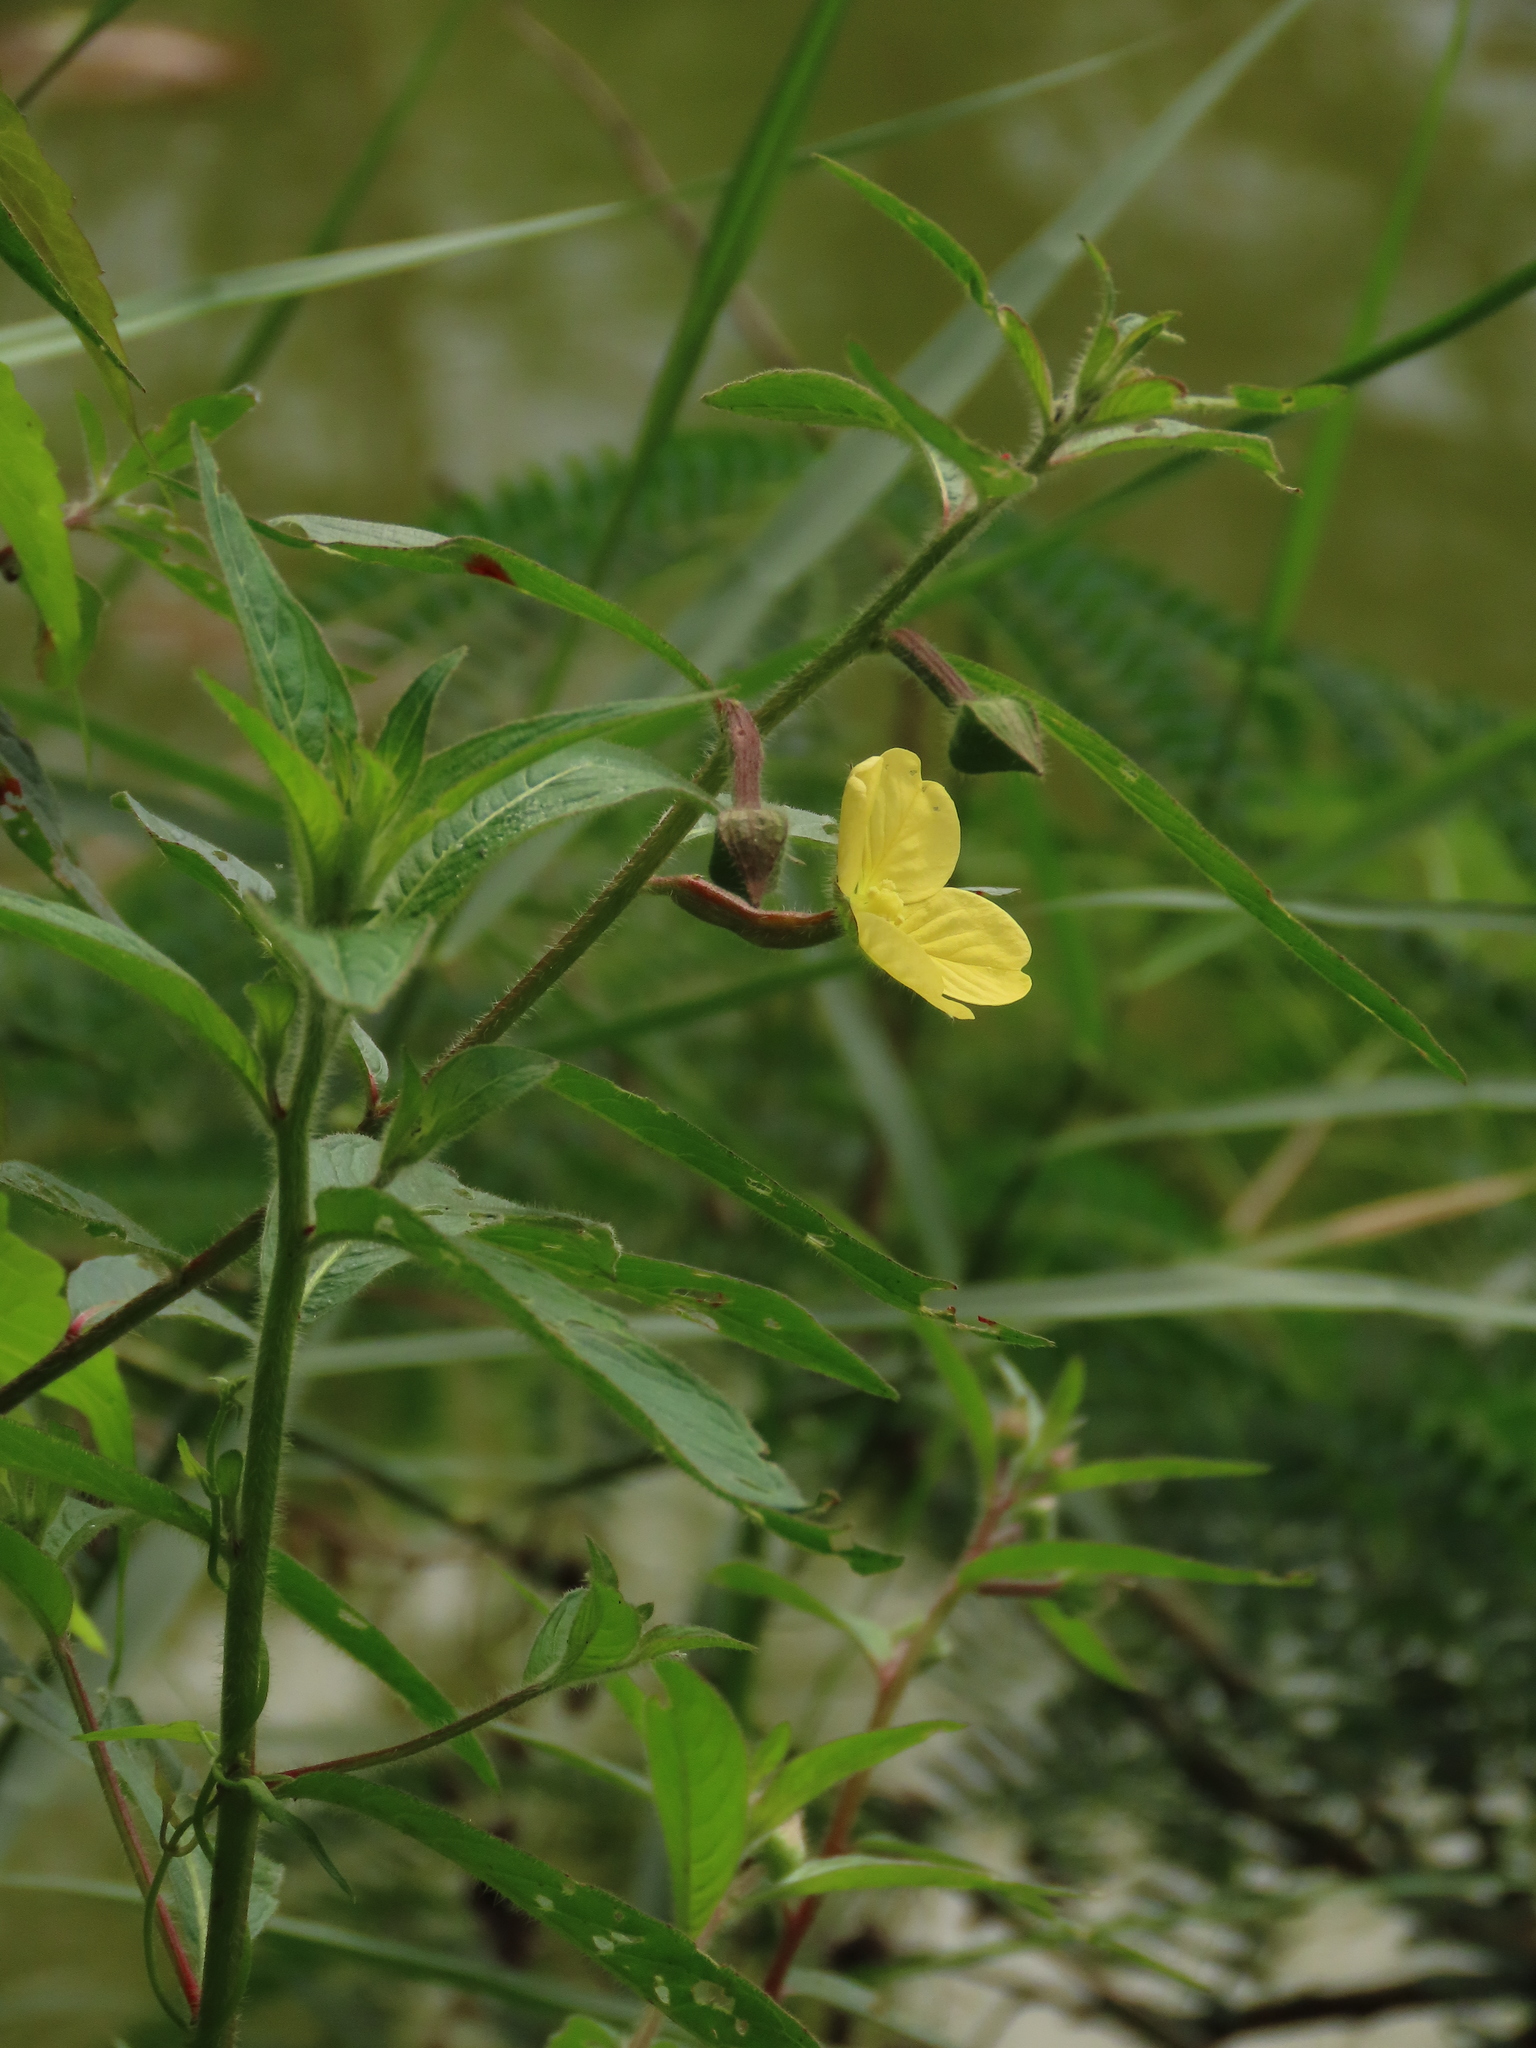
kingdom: Plantae
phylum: Tracheophyta
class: Magnoliopsida
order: Myrtales
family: Onagraceae
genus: Ludwigia
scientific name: Ludwigia octovalvis
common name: Water-primrose
